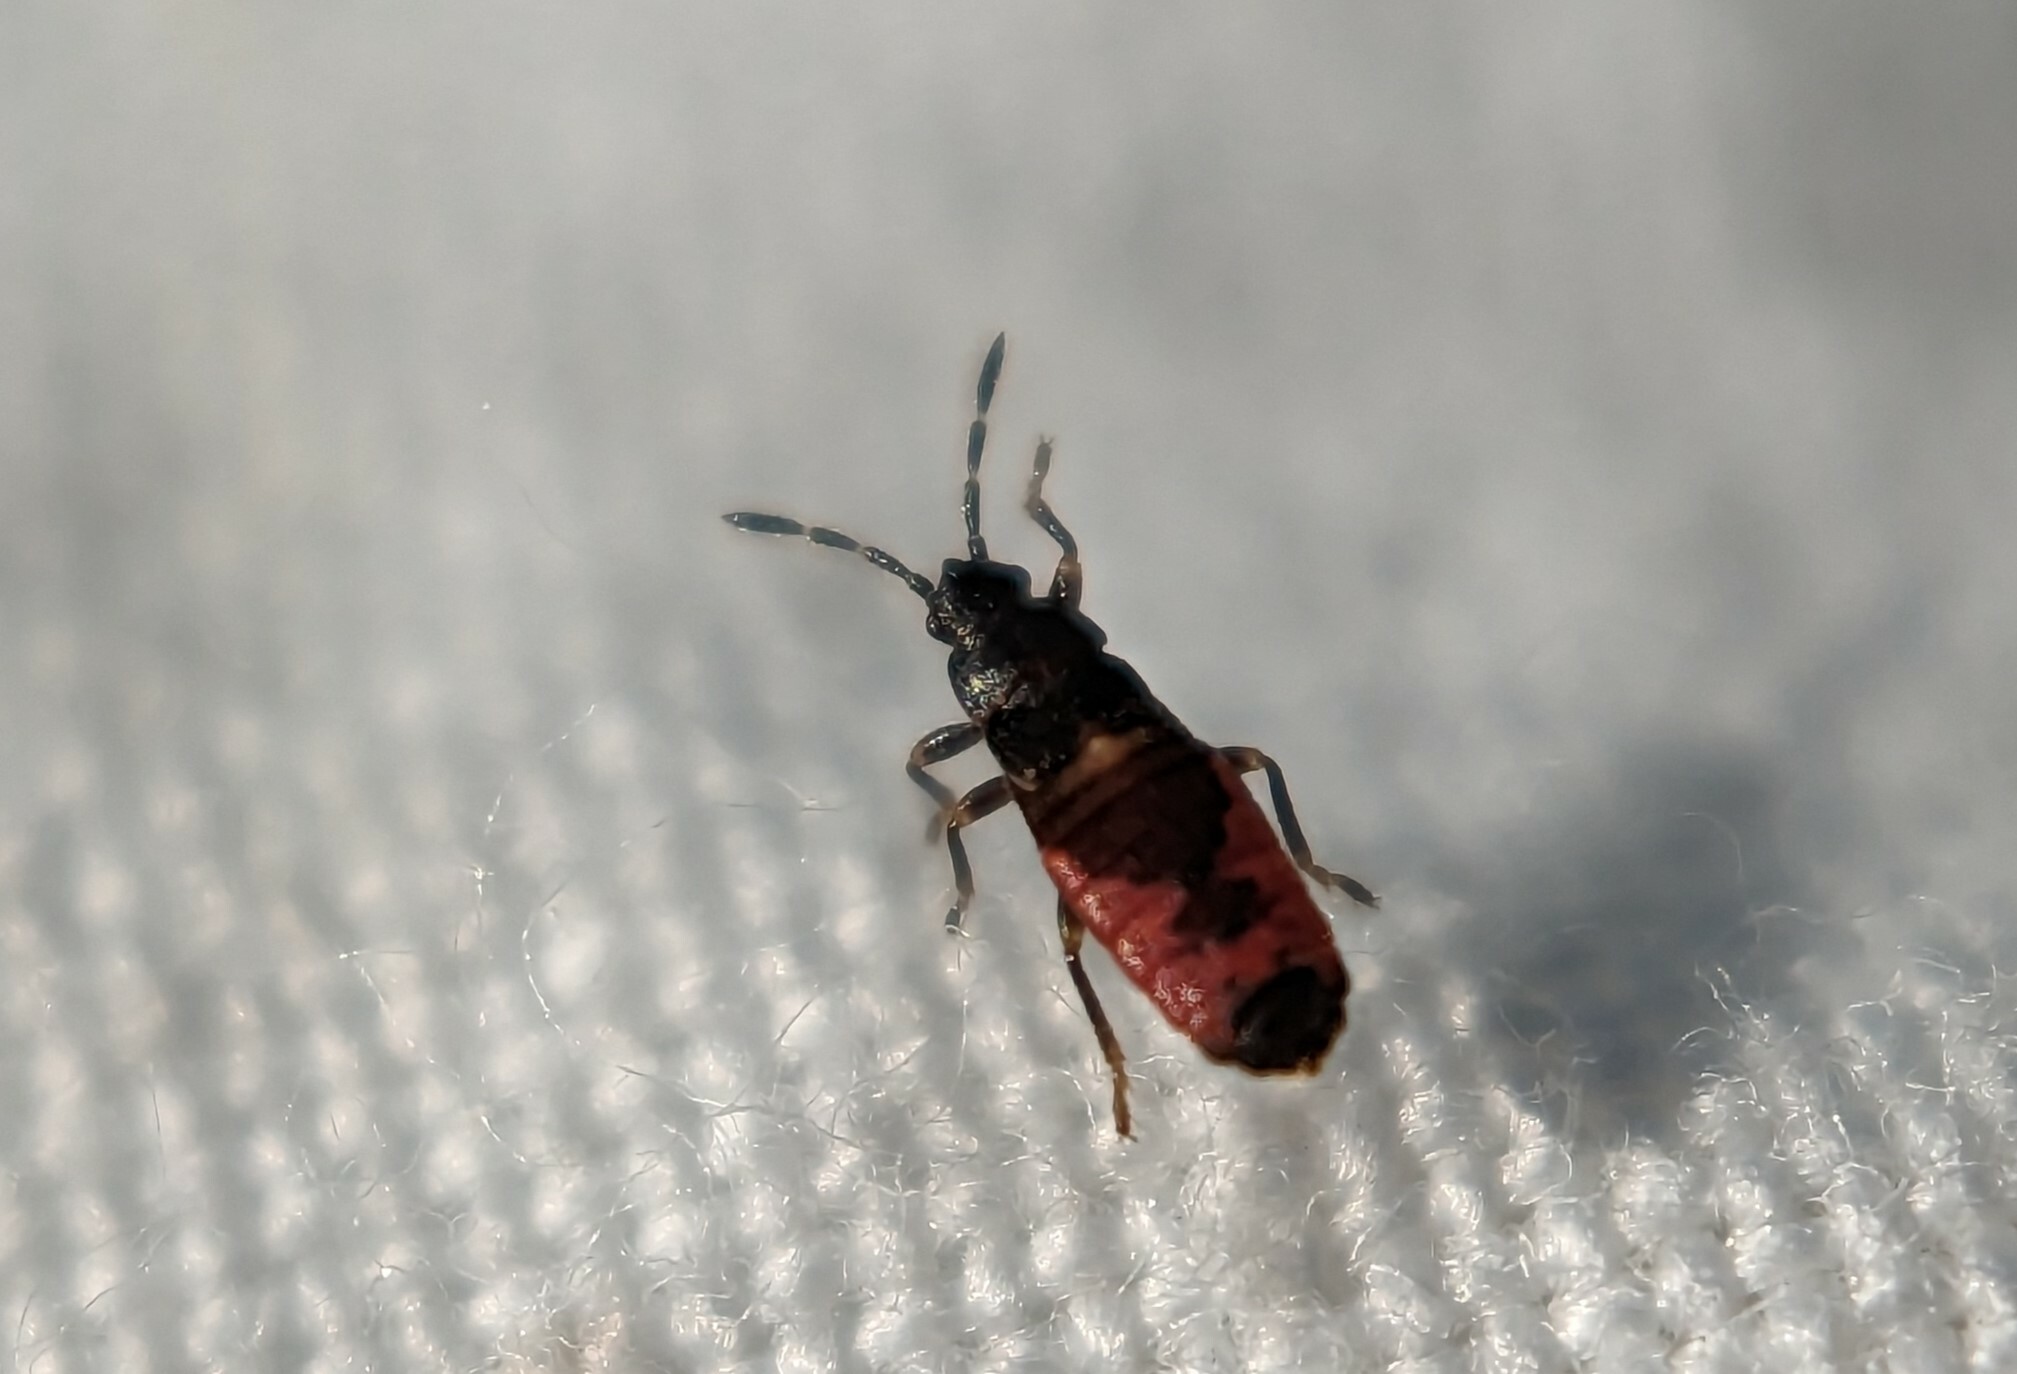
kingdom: Animalia
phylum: Arthropoda
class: Insecta
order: Hemiptera
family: Blissidae
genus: Ischnodemus
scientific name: Ischnodemus sabuleti
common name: European cinchbug
